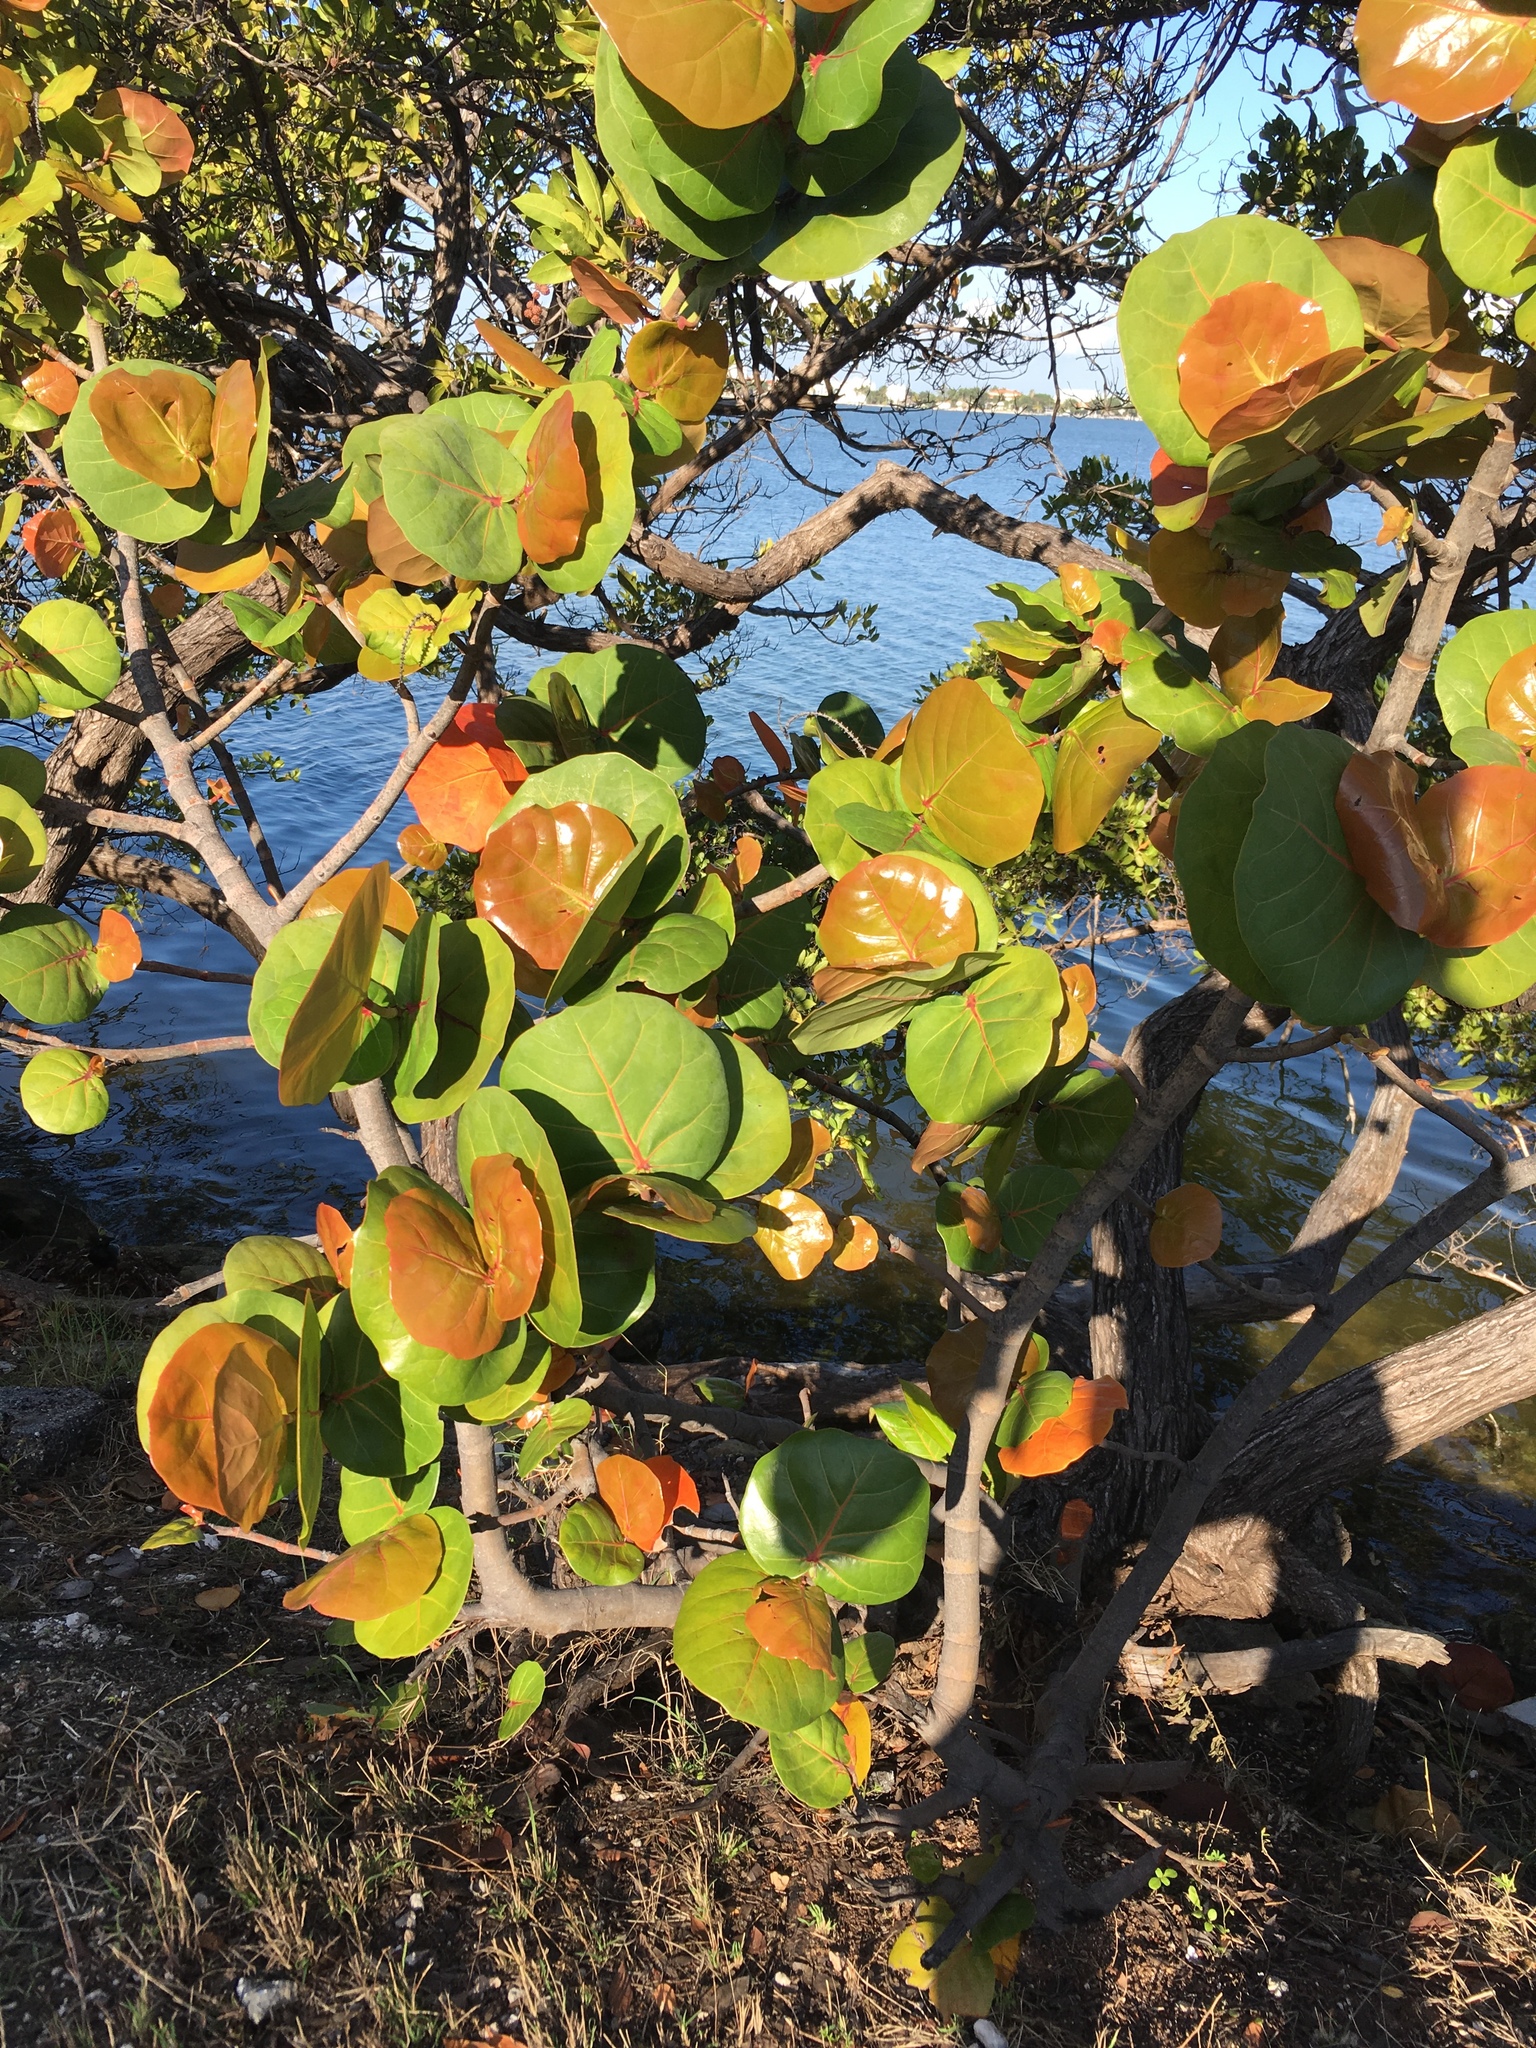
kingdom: Plantae
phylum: Tracheophyta
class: Magnoliopsida
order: Caryophyllales
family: Polygonaceae
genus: Coccoloba
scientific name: Coccoloba uvifera
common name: Seagrape
